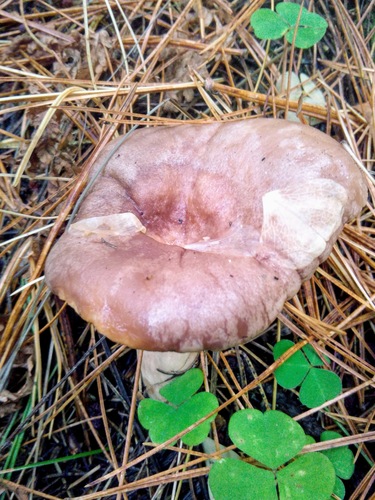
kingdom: Fungi
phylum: Basidiomycota
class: Agaricomycetes
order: Russulales
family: Russulaceae
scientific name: Russulaceae
